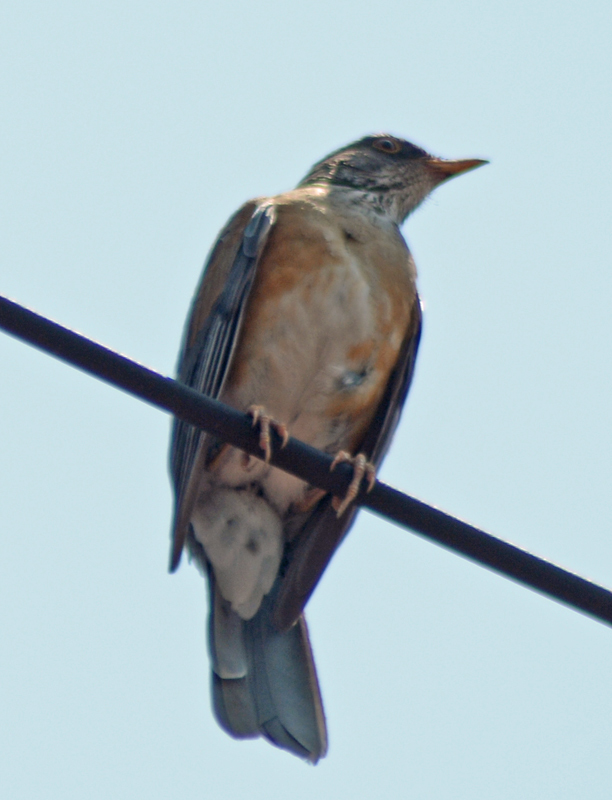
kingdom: Animalia
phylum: Chordata
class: Aves
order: Passeriformes
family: Turdidae
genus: Turdus
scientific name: Turdus rufopalliatus
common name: Rufous-backed robin
